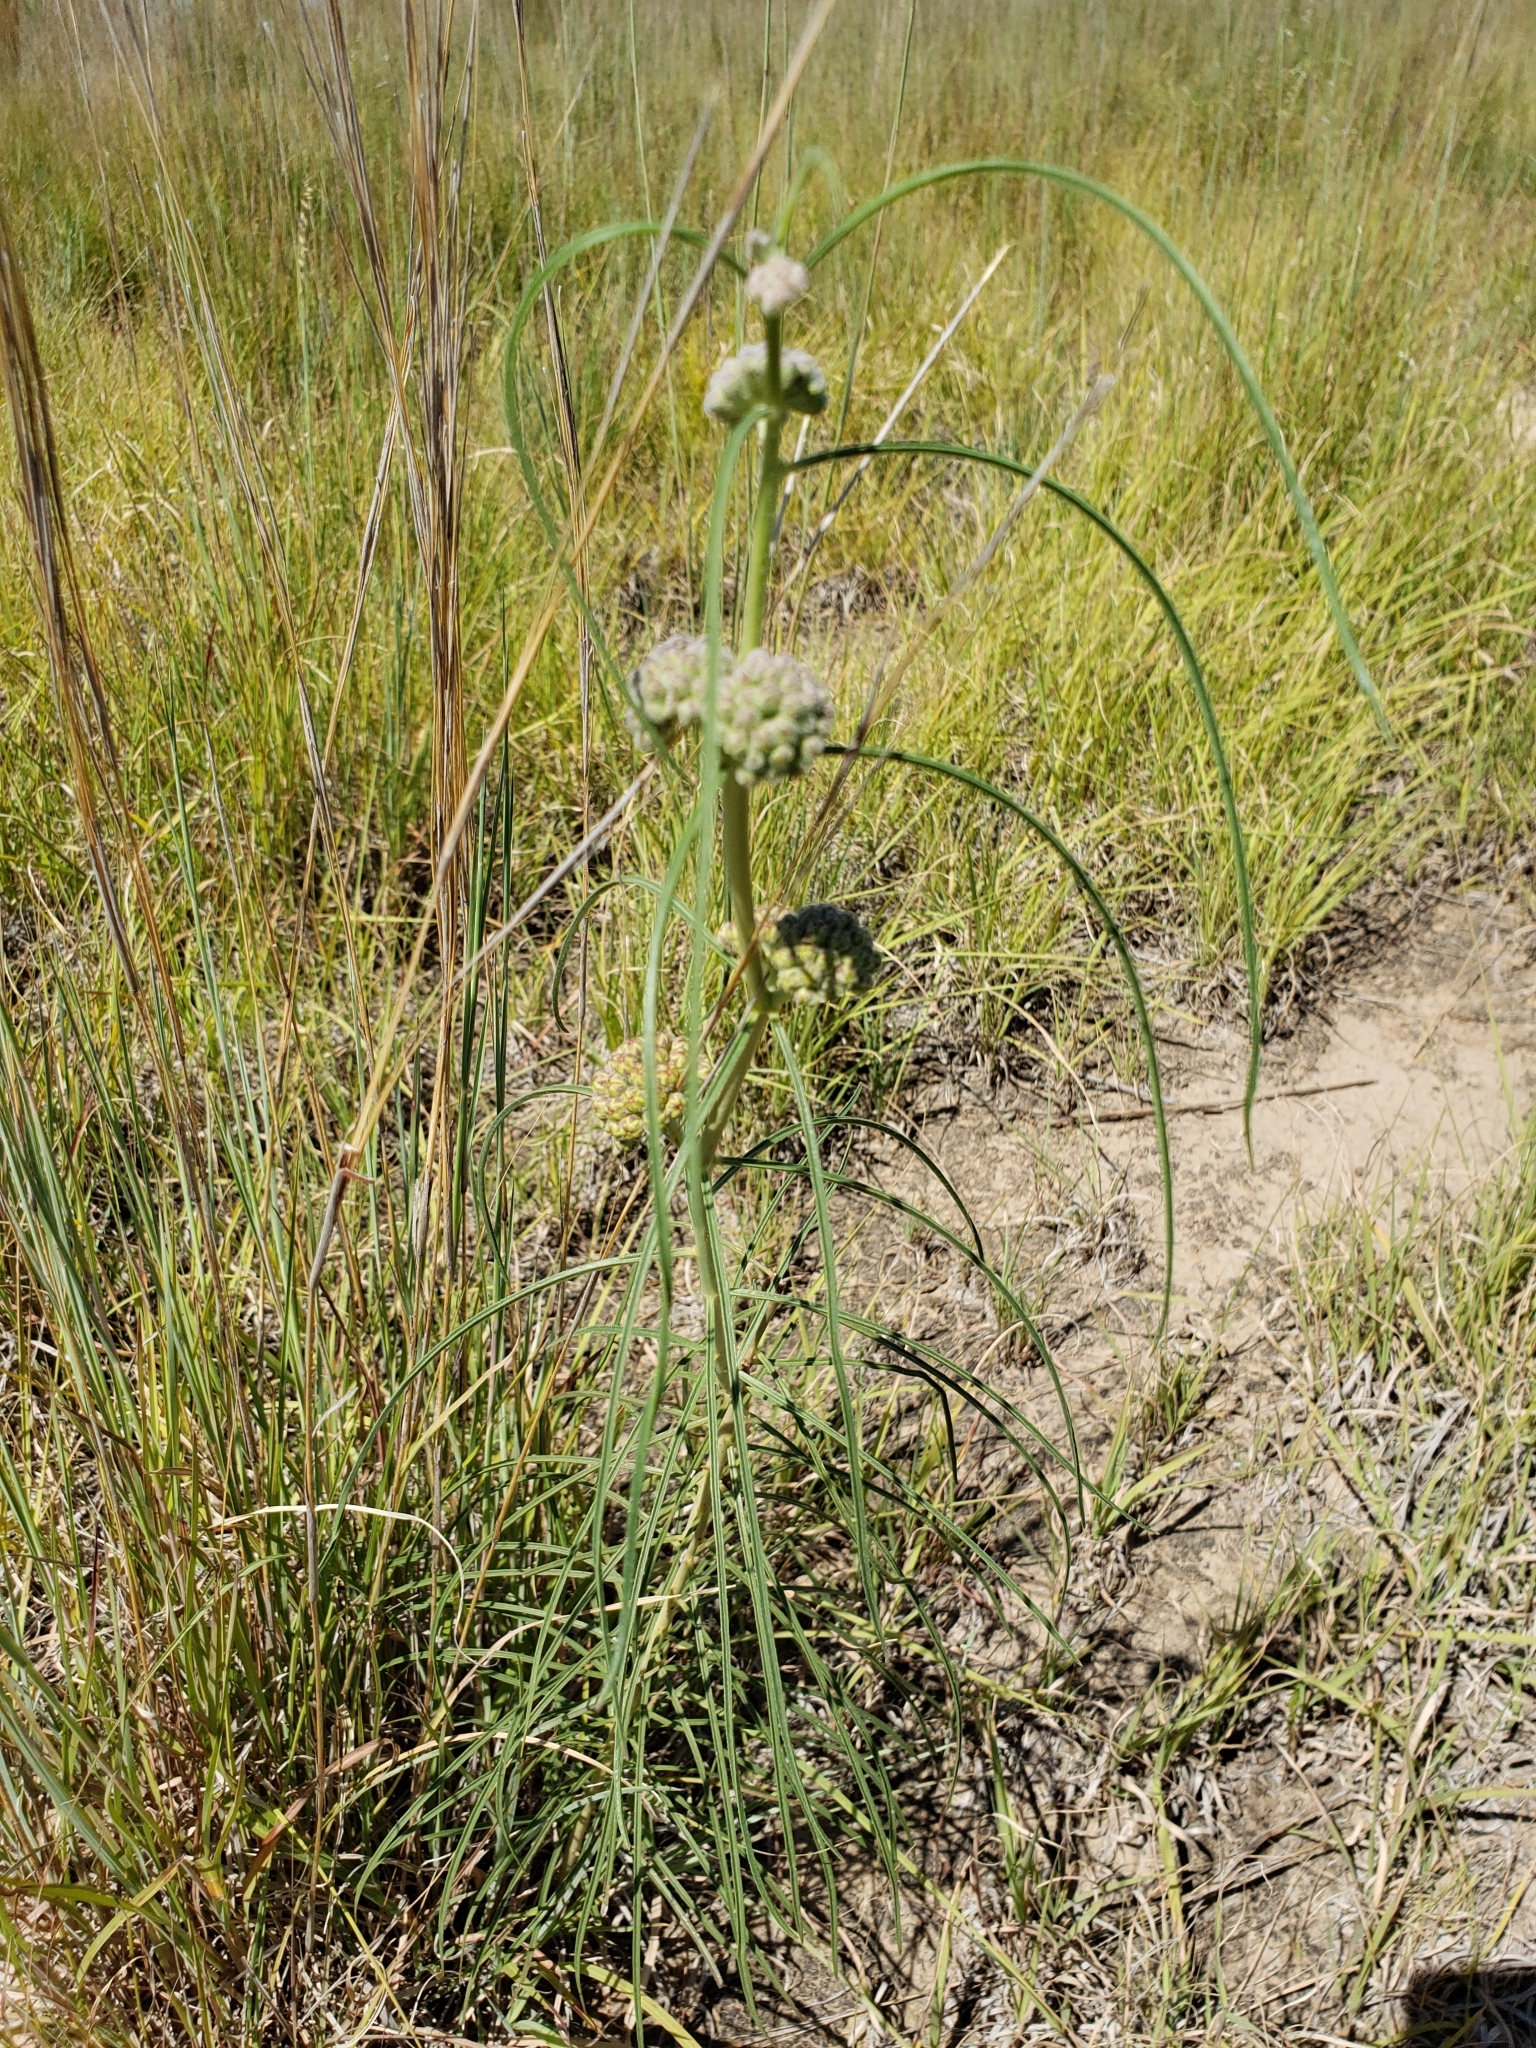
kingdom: Plantae
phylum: Tracheophyta
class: Magnoliopsida
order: Gentianales
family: Apocynaceae
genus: Asclepias
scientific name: Asclepias engelmanniana
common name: Engelmann's milkweed
